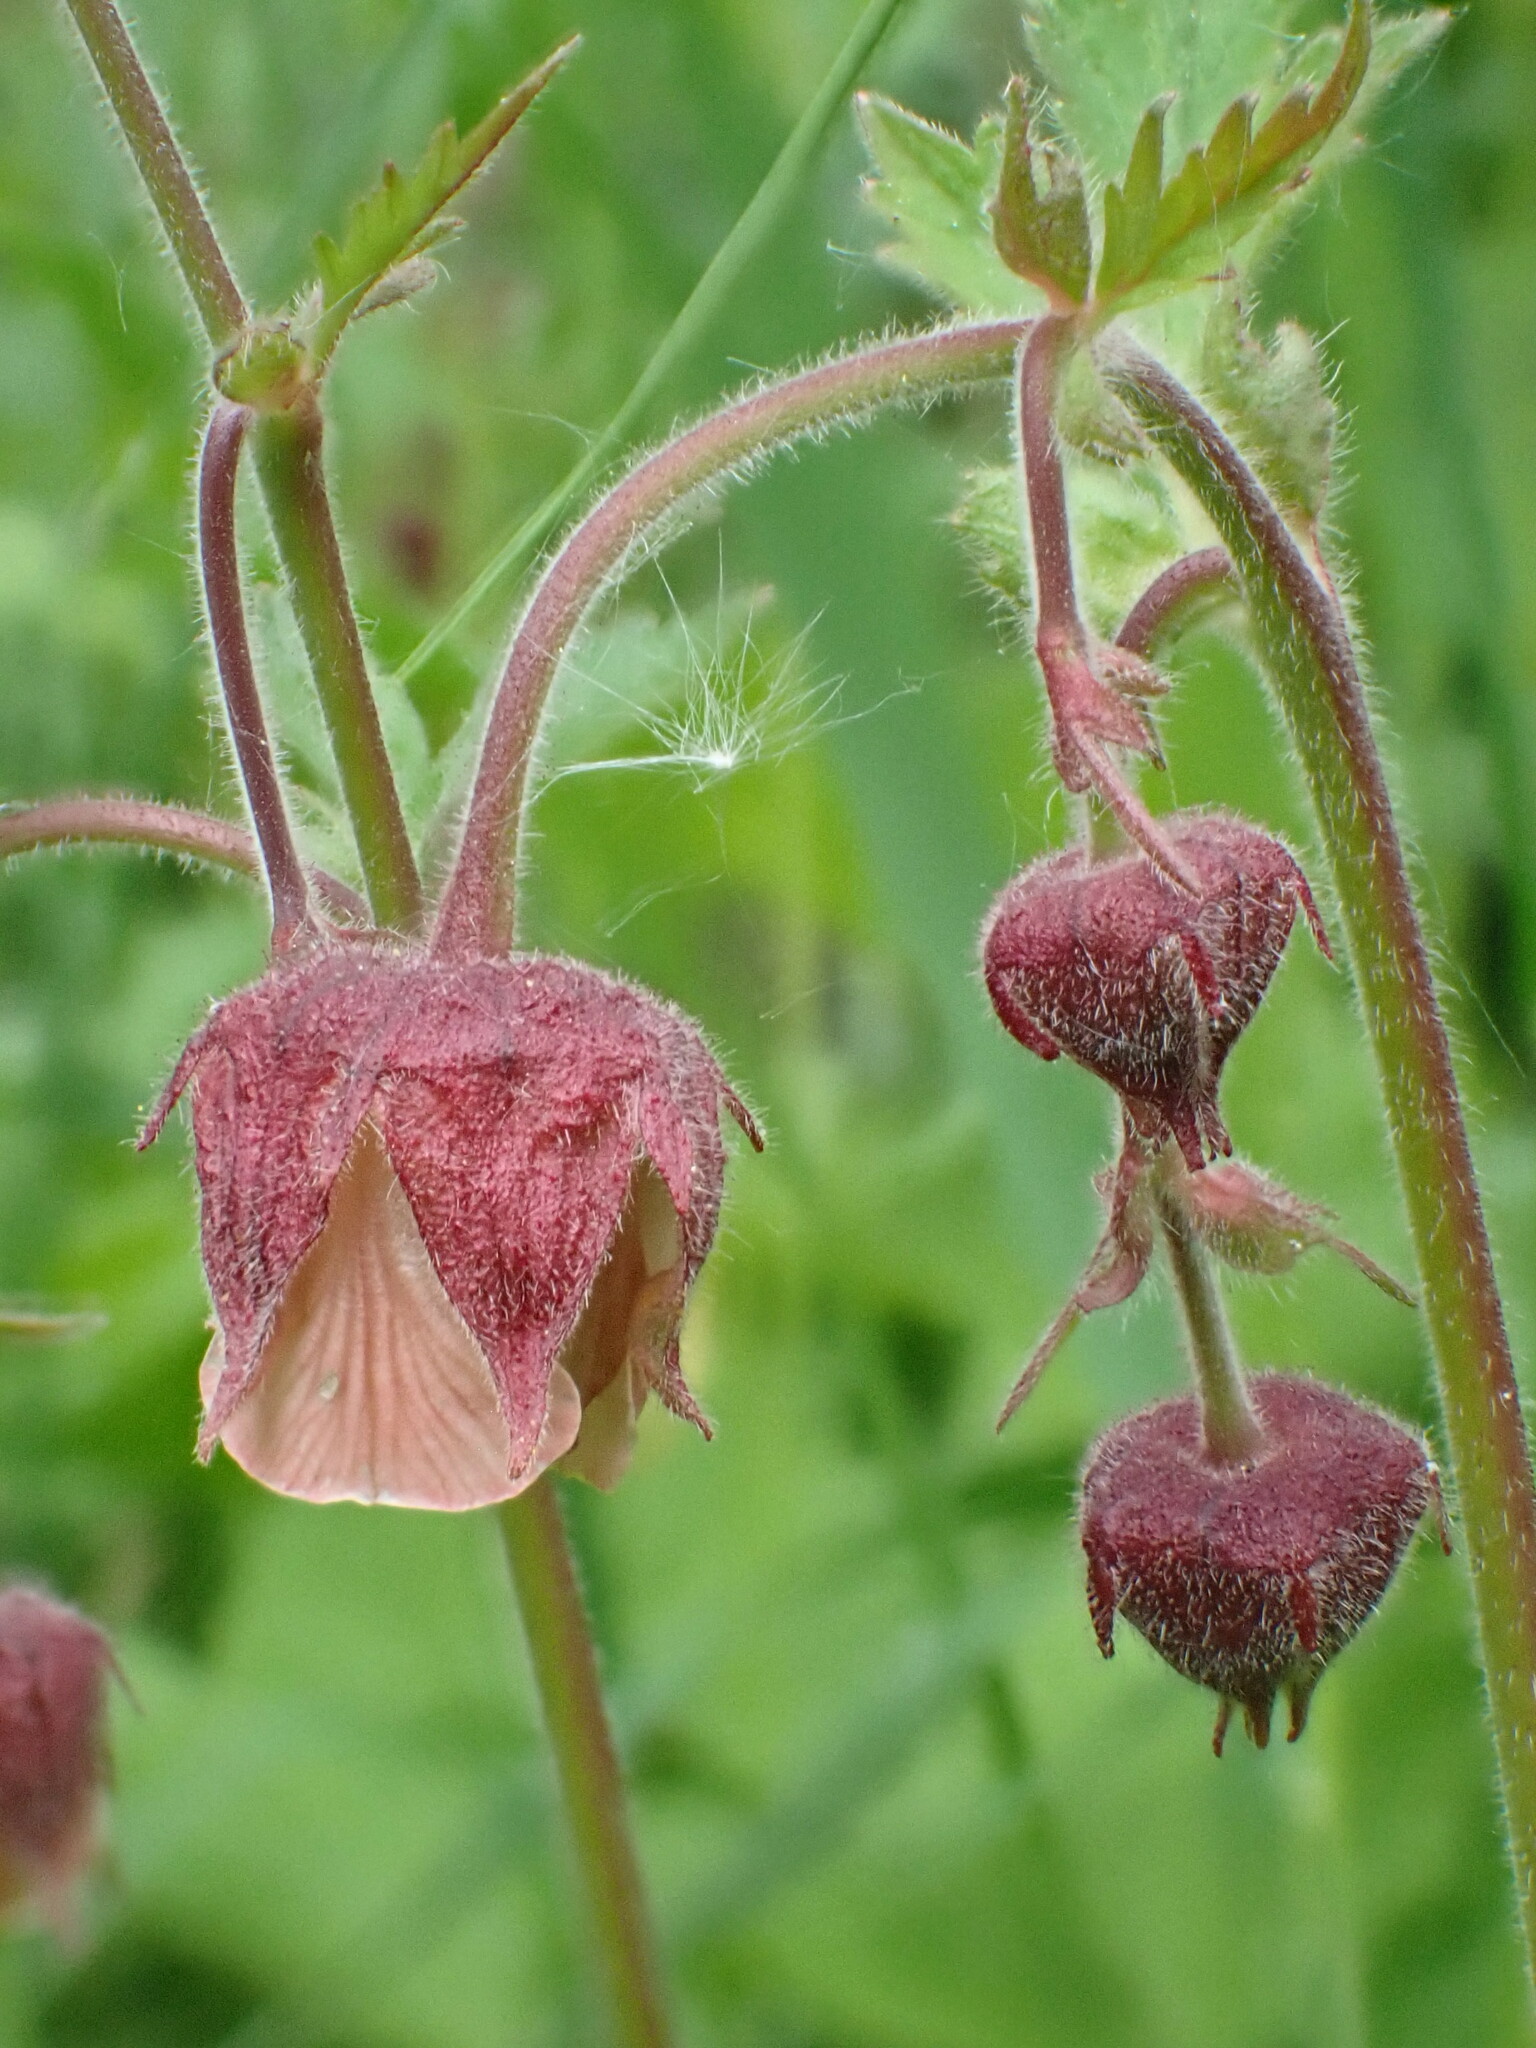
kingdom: Plantae
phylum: Tracheophyta
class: Magnoliopsida
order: Rosales
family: Rosaceae
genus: Geum
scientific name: Geum rivale
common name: Water avens
